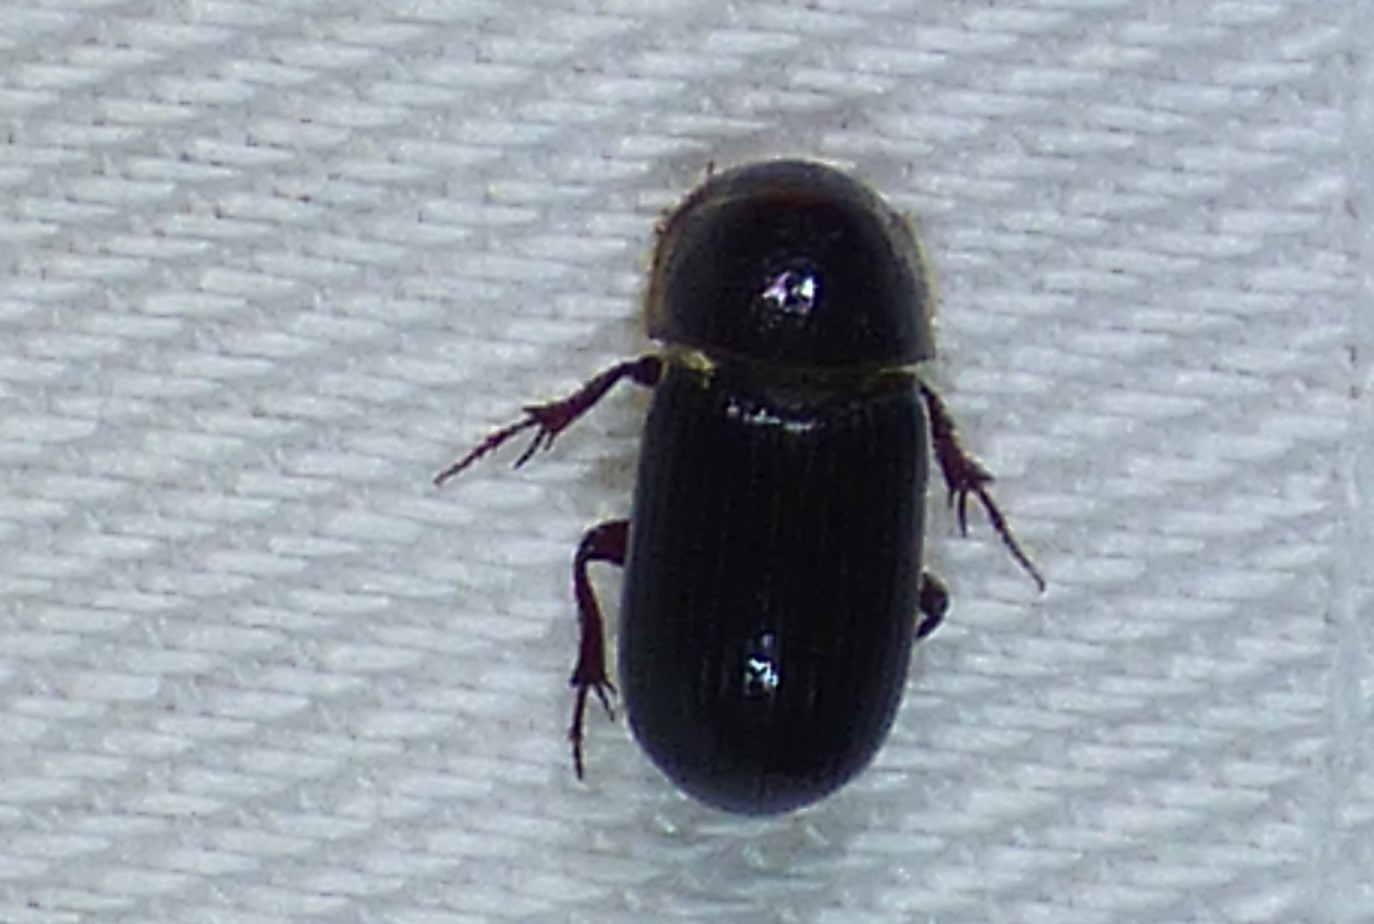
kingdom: Animalia
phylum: Arthropoda
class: Insecta
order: Coleoptera
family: Scarabaeidae
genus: Martineziana
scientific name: Martineziana dutertrei
